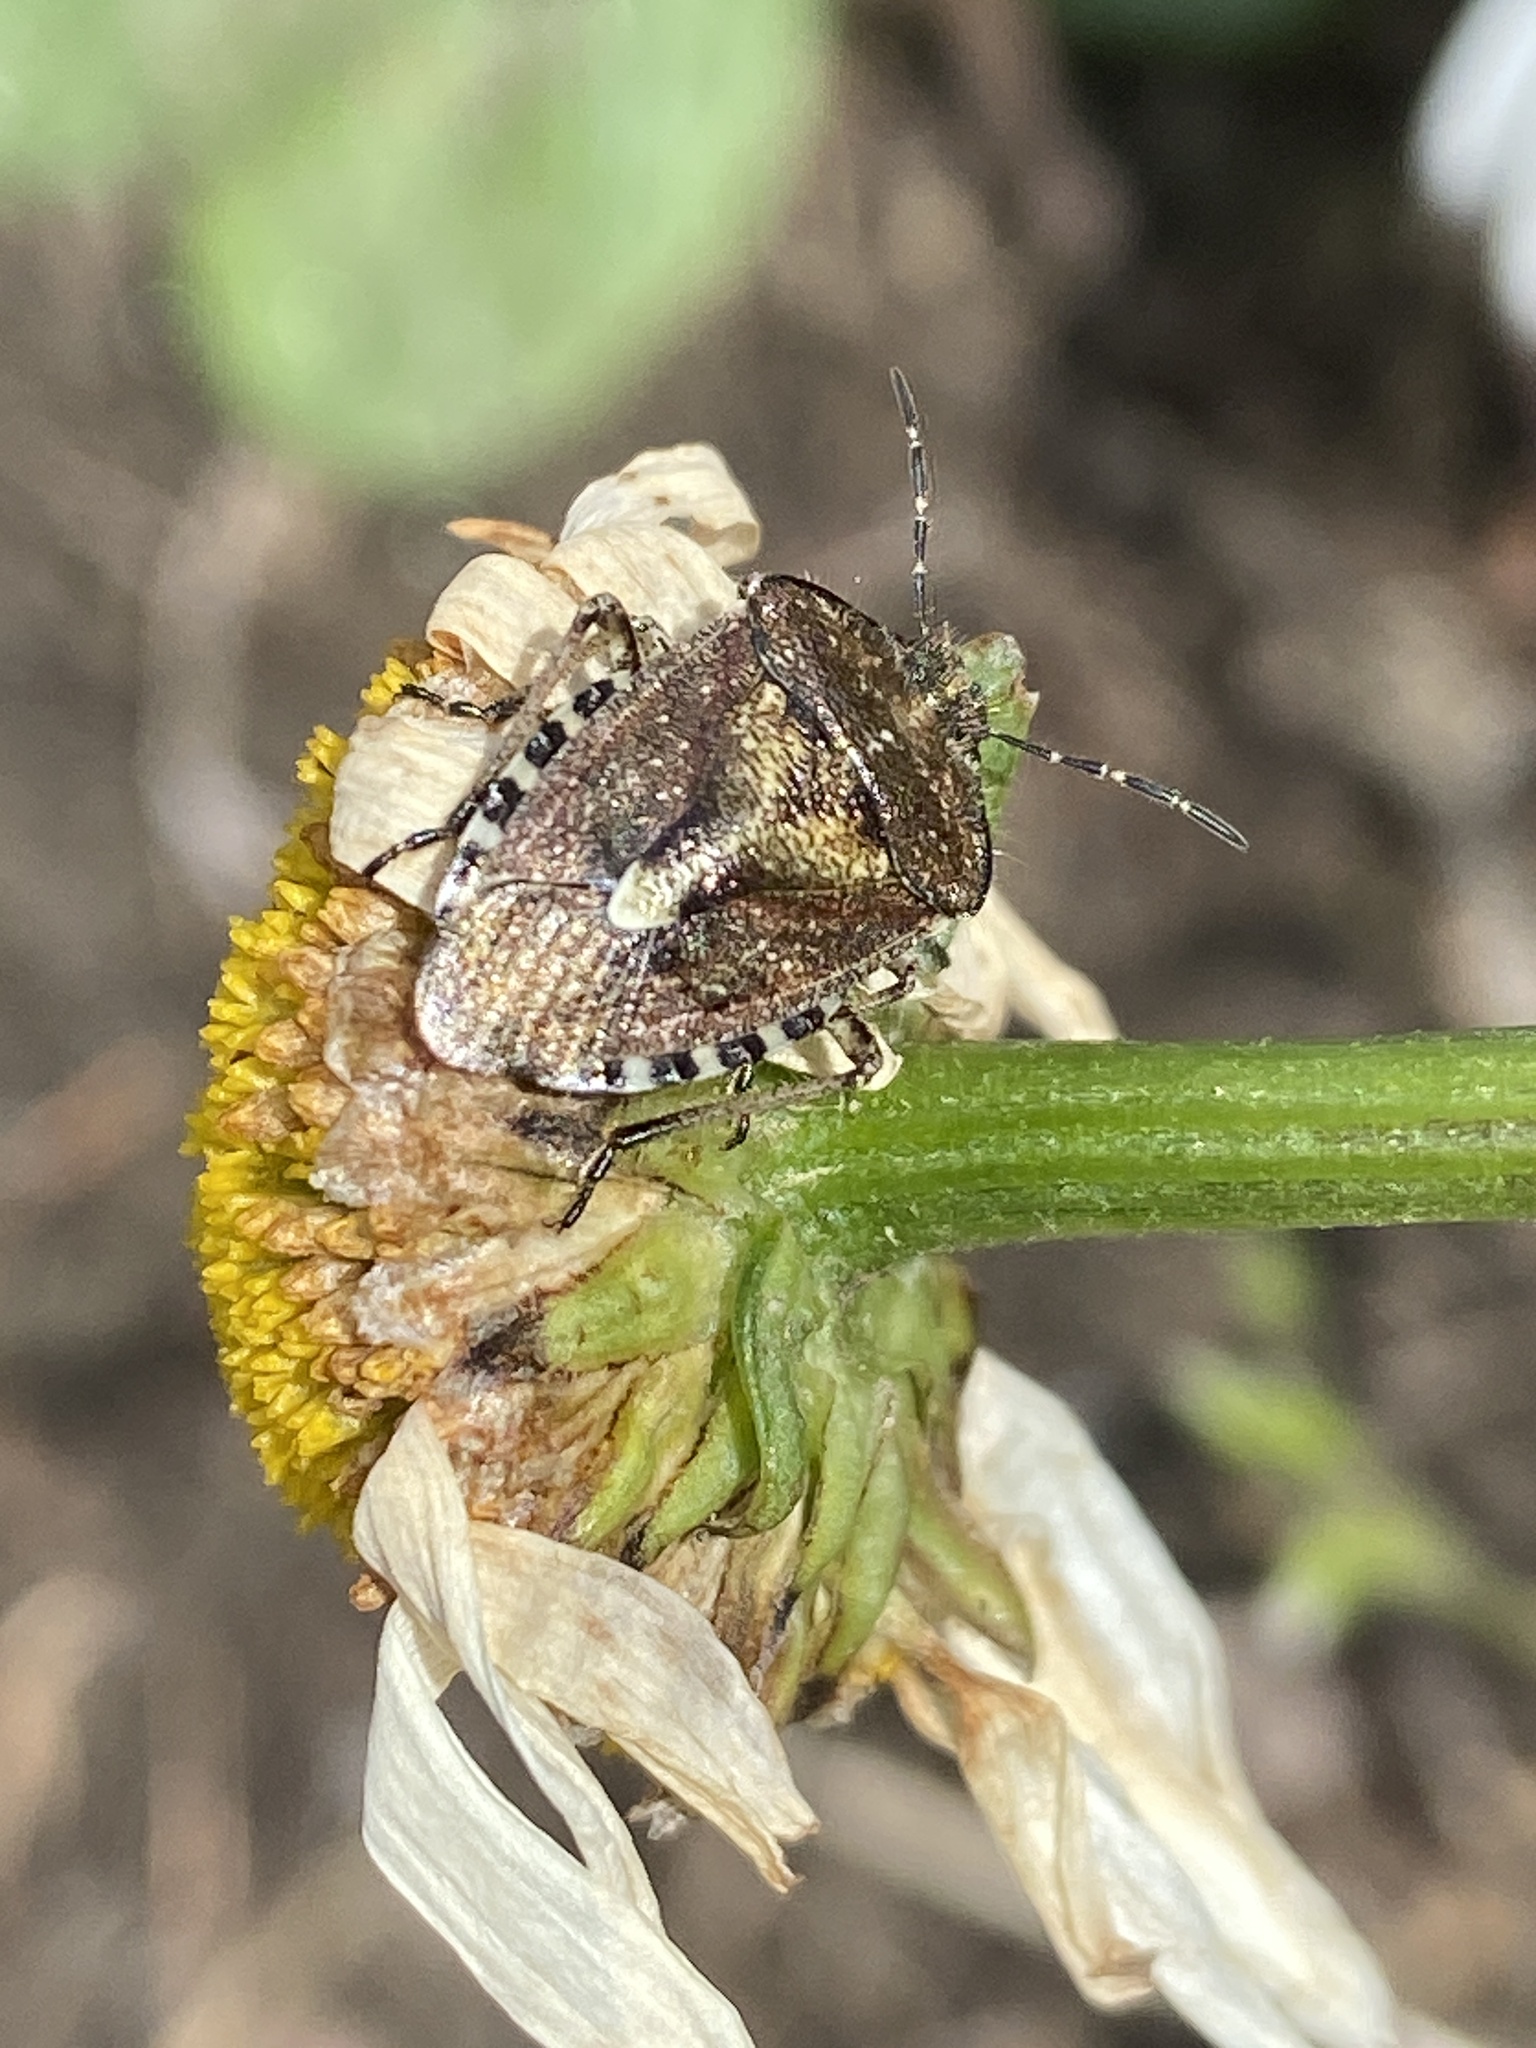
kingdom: Animalia
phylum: Arthropoda
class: Insecta
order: Hemiptera
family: Pentatomidae
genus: Dolycoris
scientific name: Dolycoris baccarum
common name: Sloe bug
